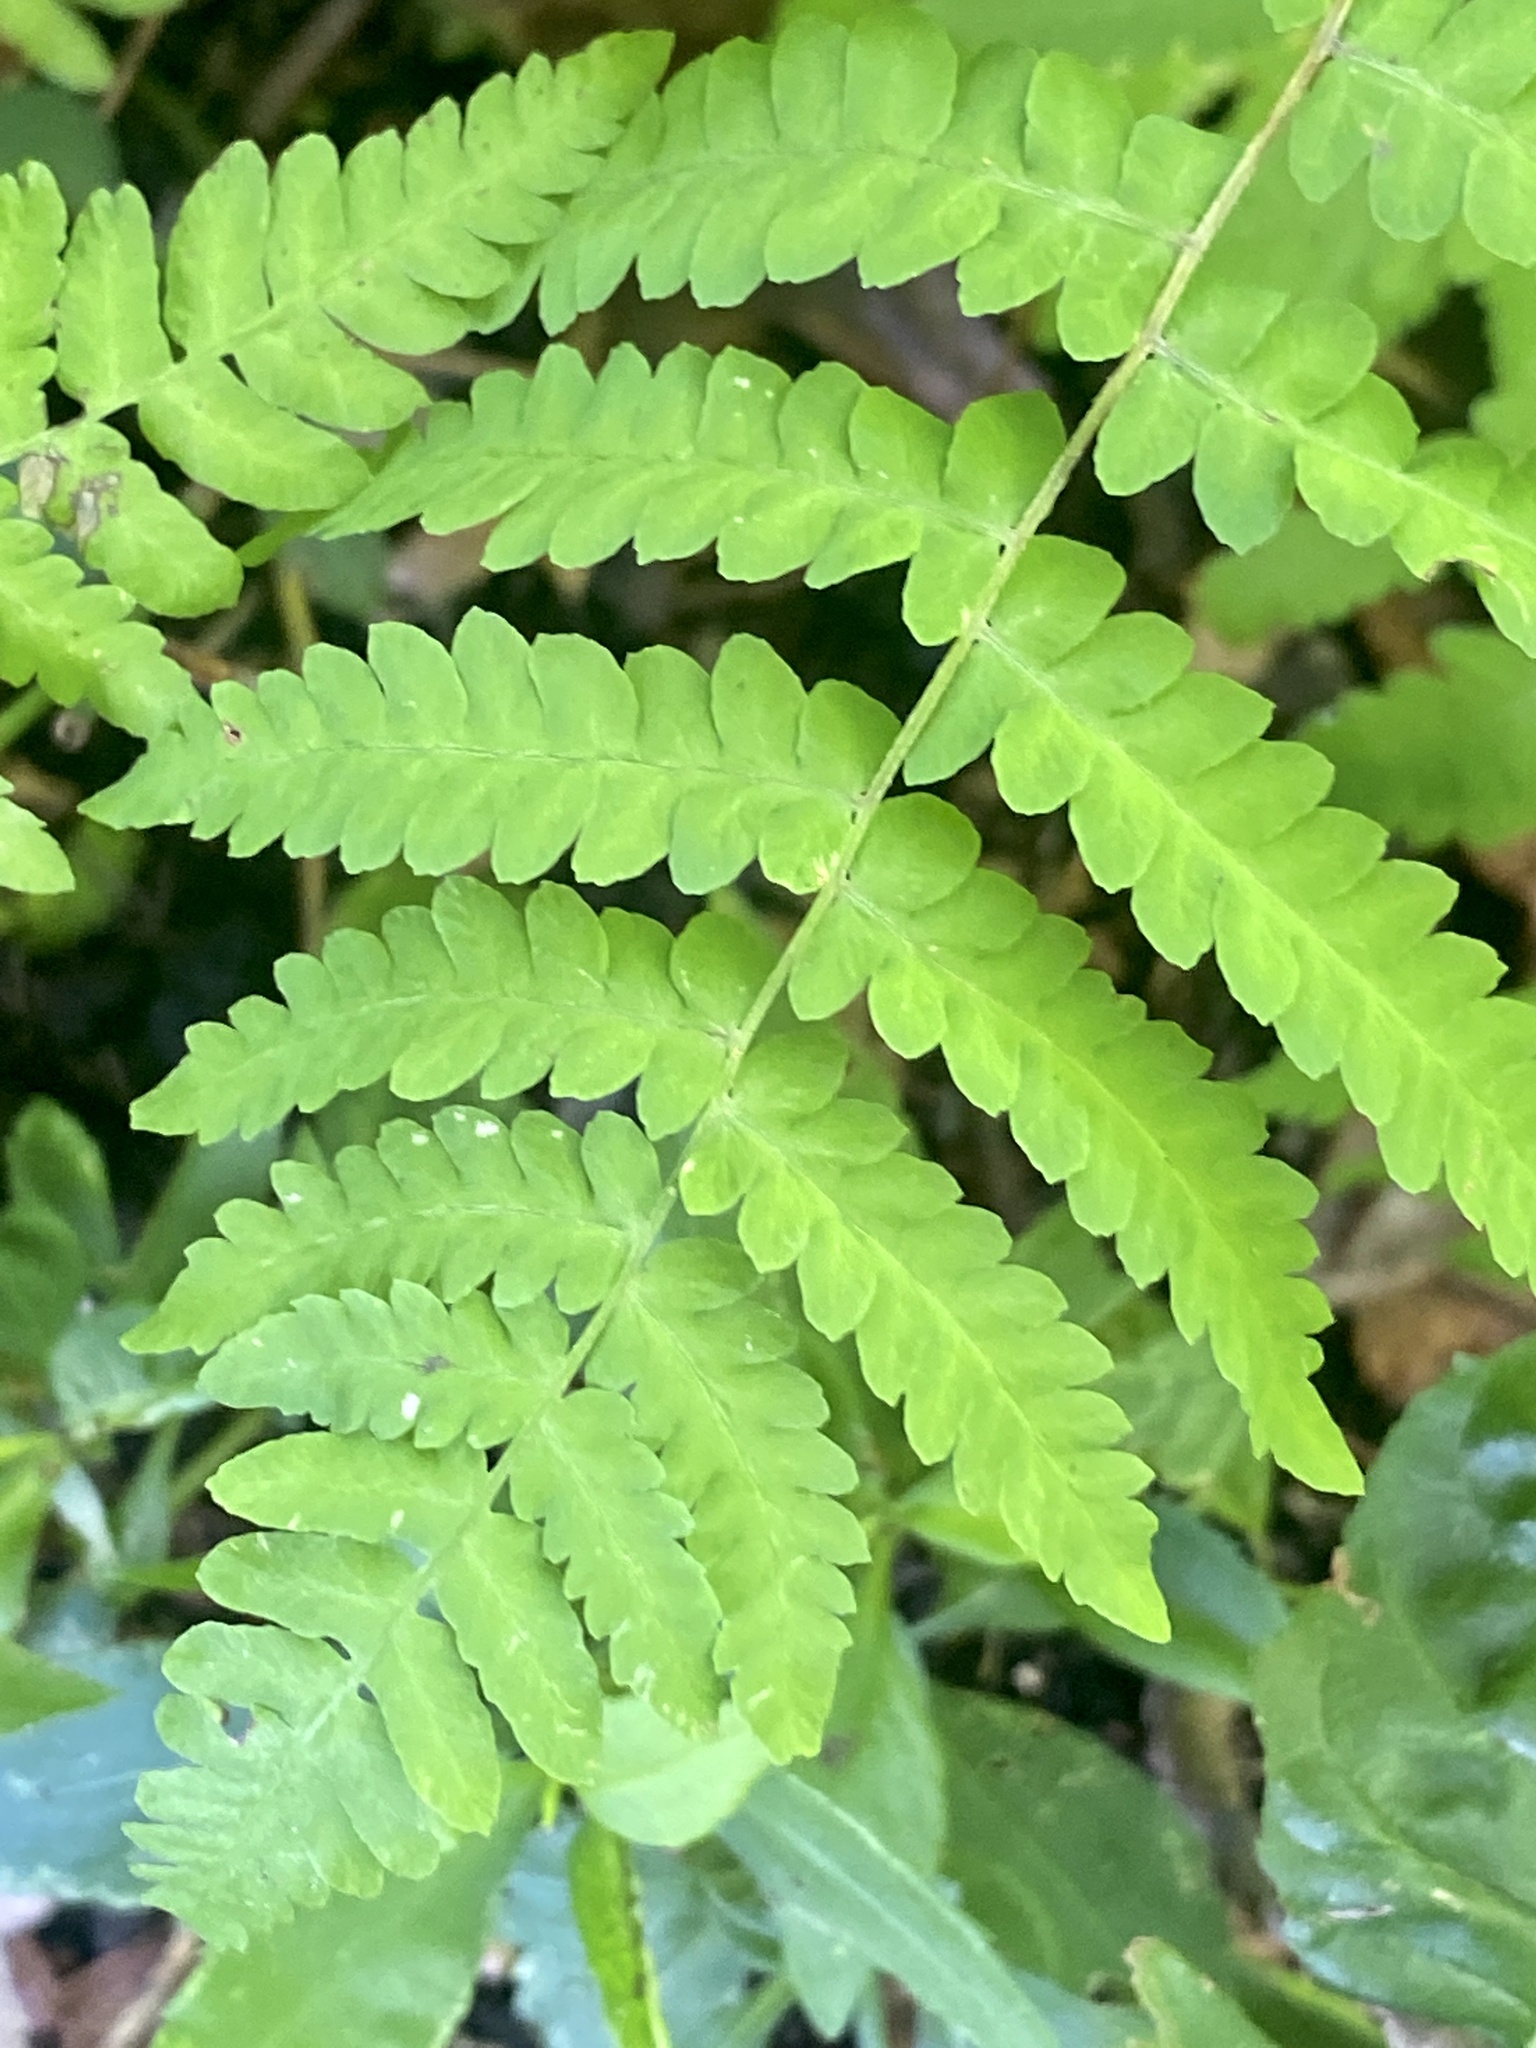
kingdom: Plantae
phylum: Tracheophyta
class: Polypodiopsida
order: Osmundales
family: Osmundaceae
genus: Claytosmunda
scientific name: Claytosmunda claytoniana
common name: Clayton's fern
